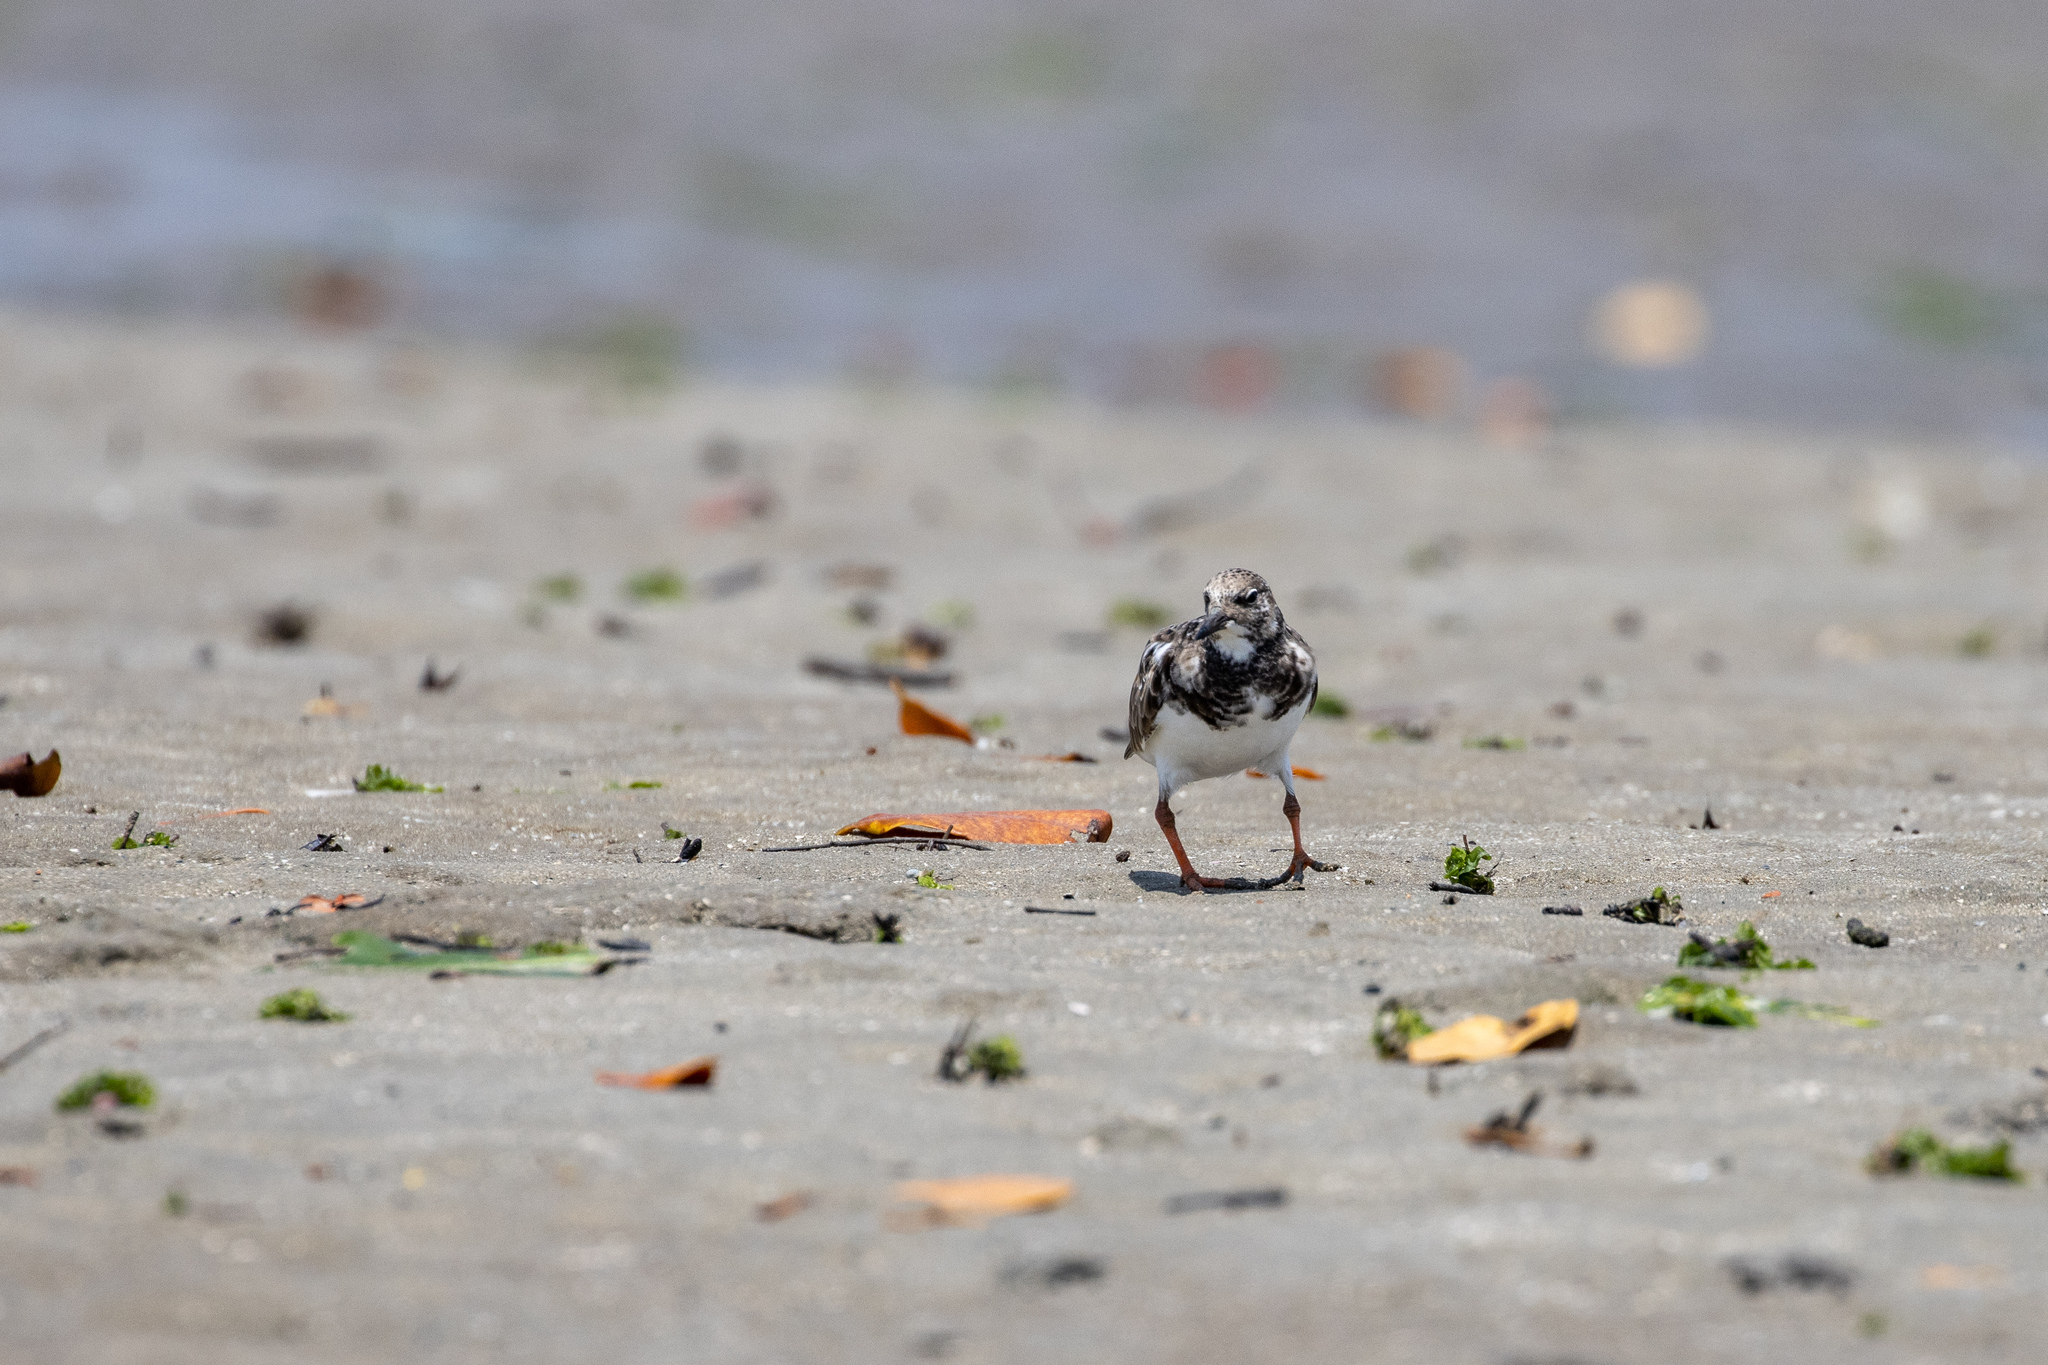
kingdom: Animalia
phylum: Chordata
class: Aves
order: Charadriiformes
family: Scolopacidae
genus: Arenaria
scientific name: Arenaria interpres
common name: Ruddy turnstone
